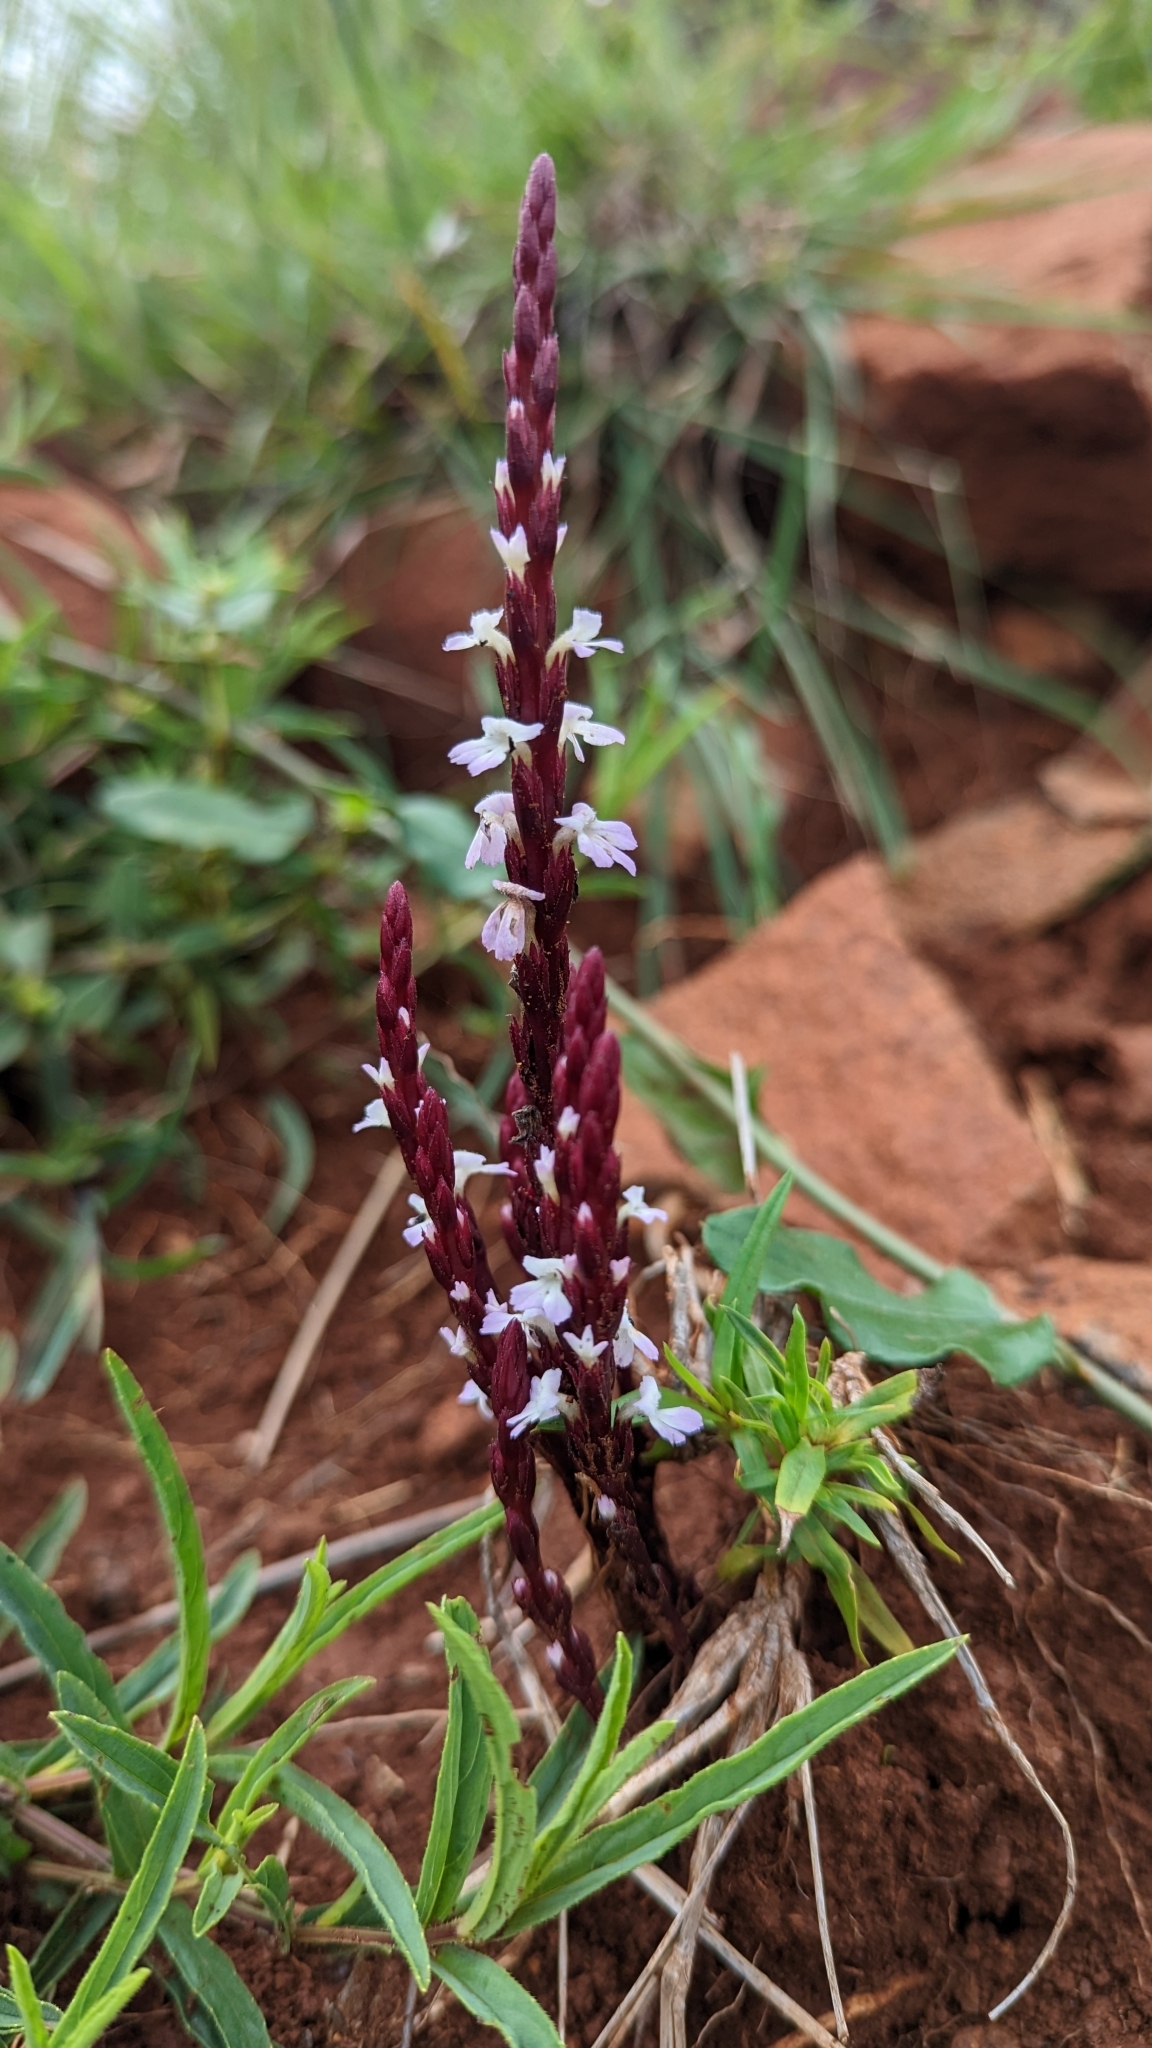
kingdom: Plantae
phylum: Tracheophyta
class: Magnoliopsida
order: Lamiales
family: Orobanchaceae
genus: Striga
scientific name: Striga gesnerioides
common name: Cowpea witchweed
